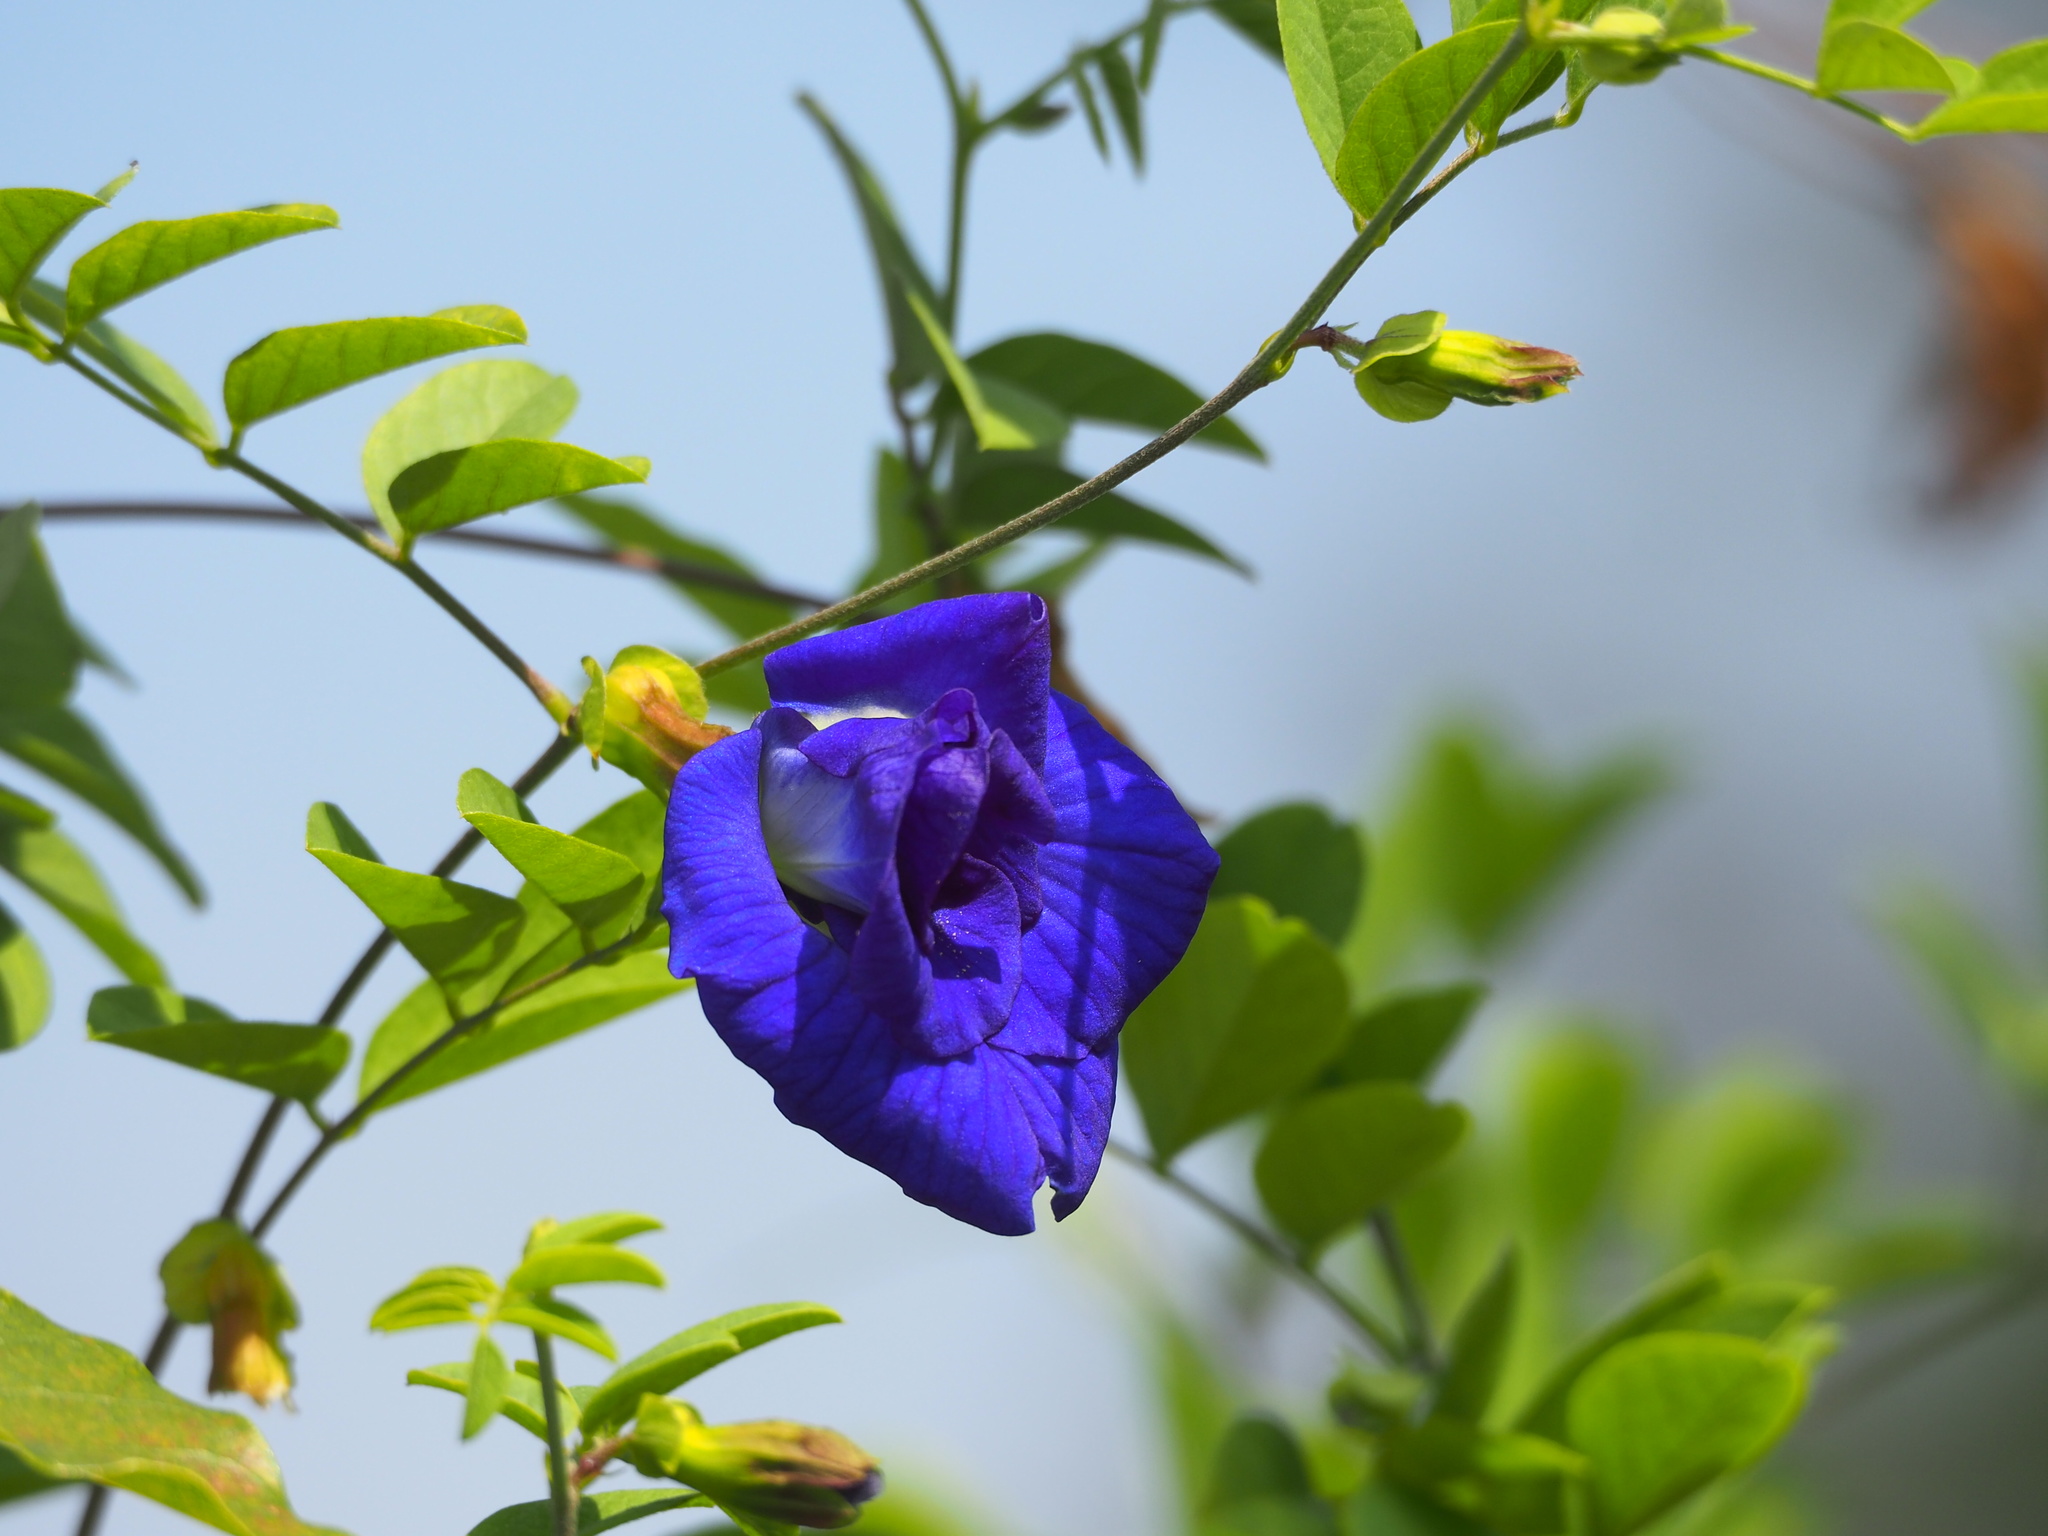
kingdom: Plantae
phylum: Tracheophyta
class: Magnoliopsida
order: Fabales
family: Fabaceae
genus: Clitoria
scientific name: Clitoria ternatea
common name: Asian pigeonwings
